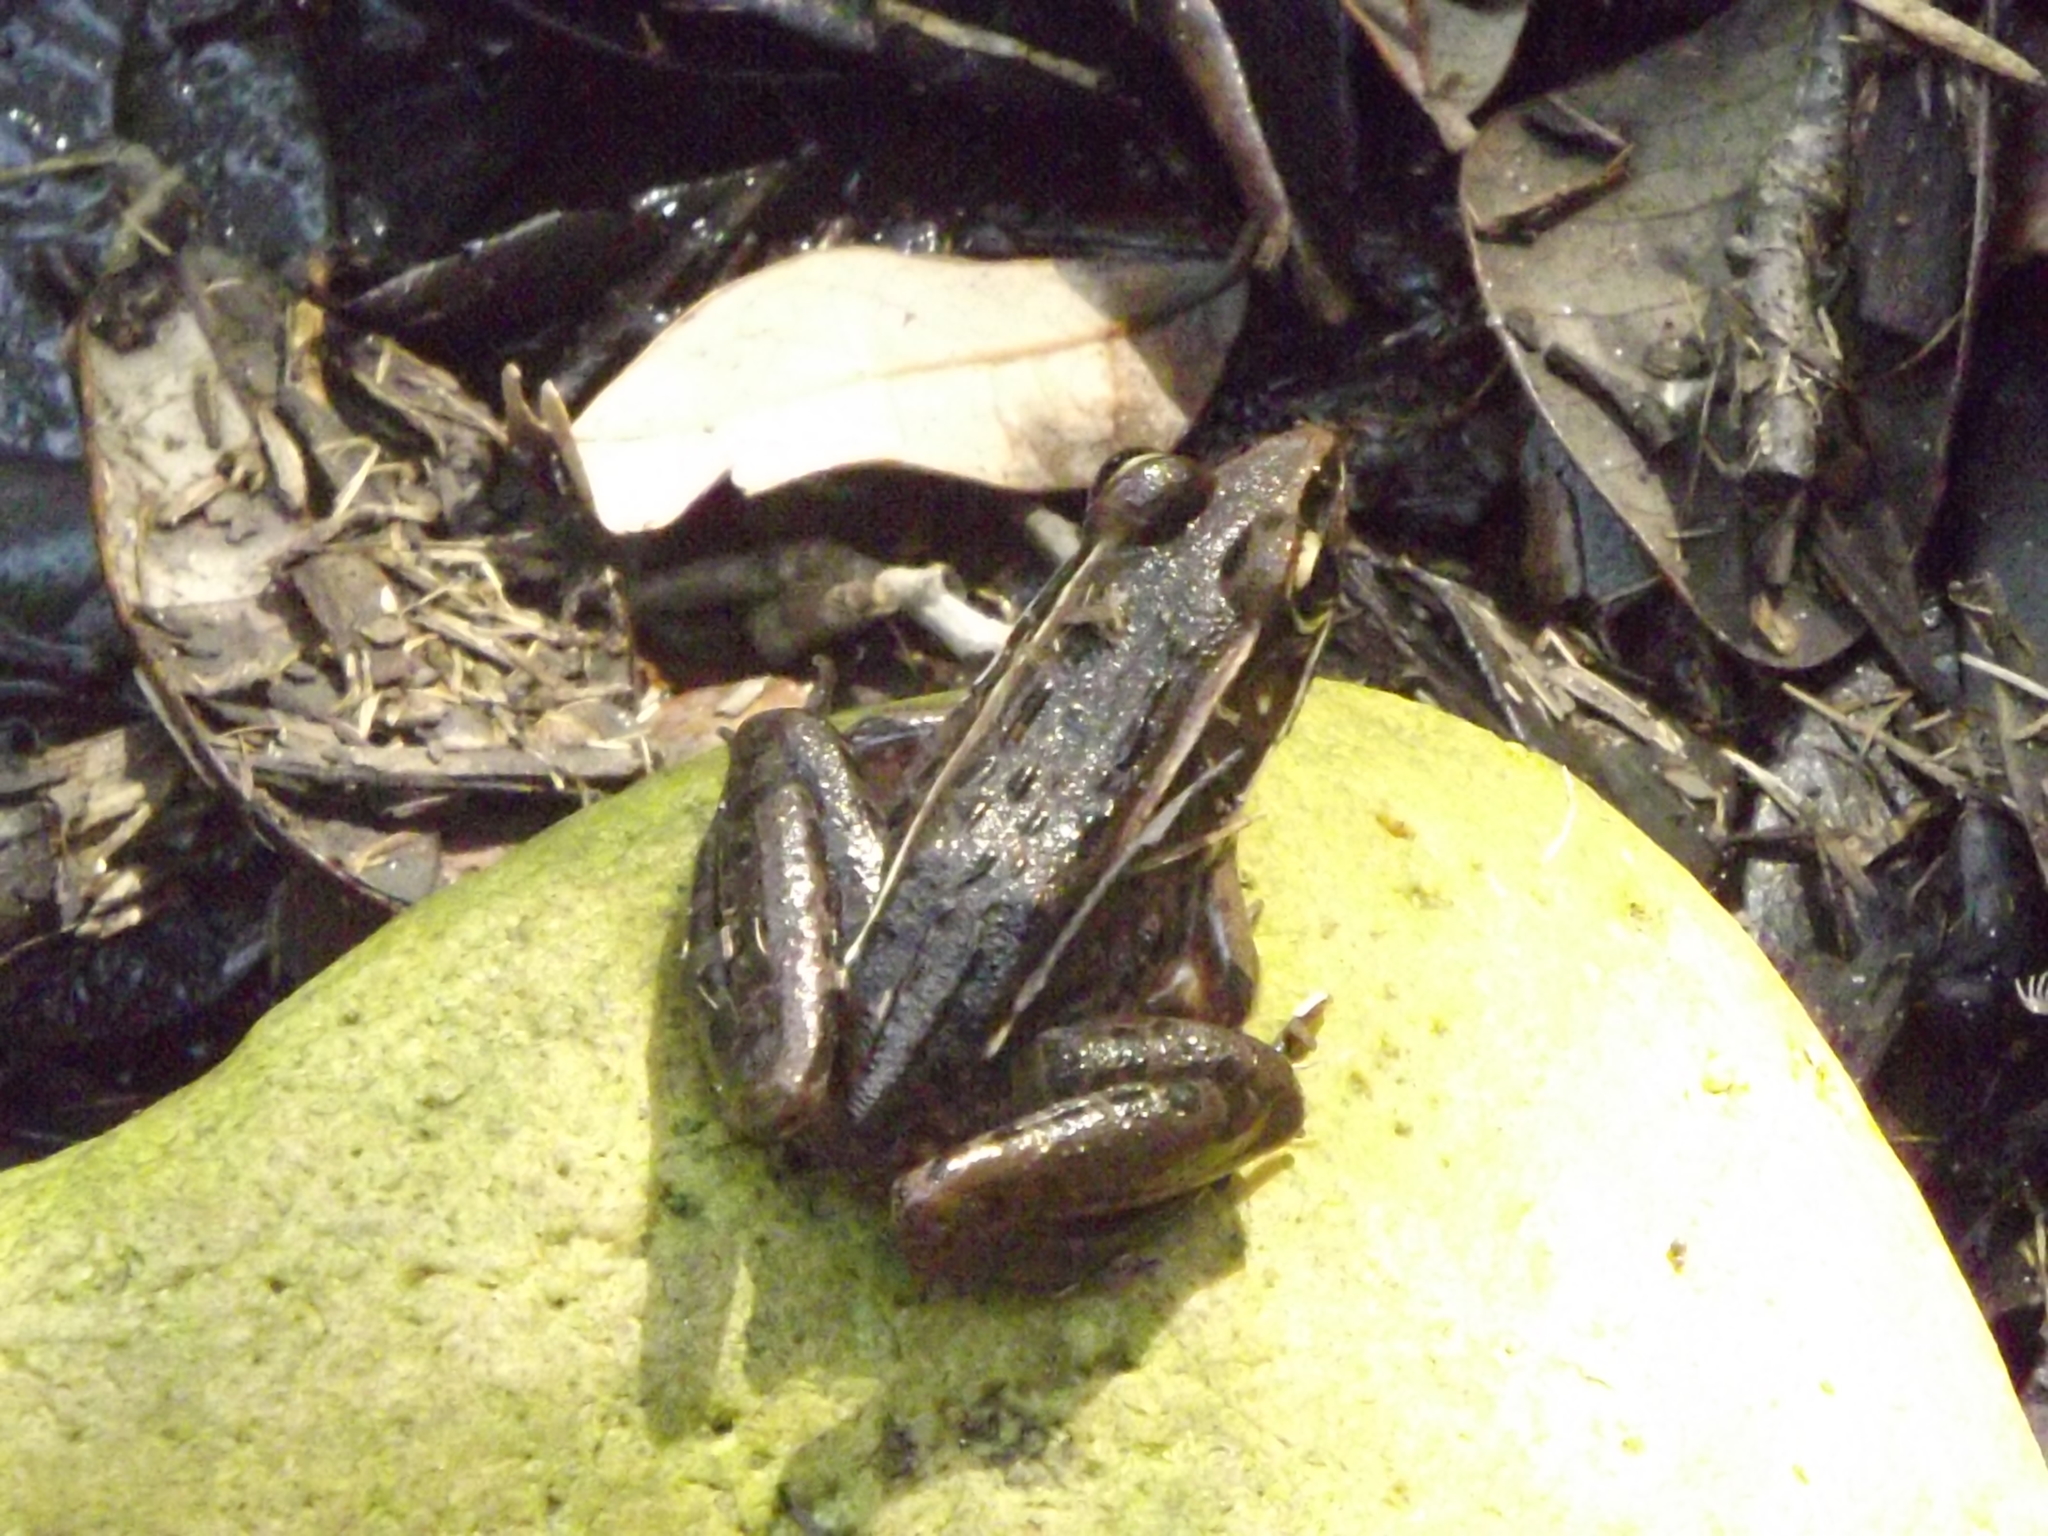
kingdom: Animalia
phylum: Chordata
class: Amphibia
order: Anura
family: Ranidae
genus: Lithobates
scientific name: Lithobates sphenocephalus
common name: Southern leopard frog
